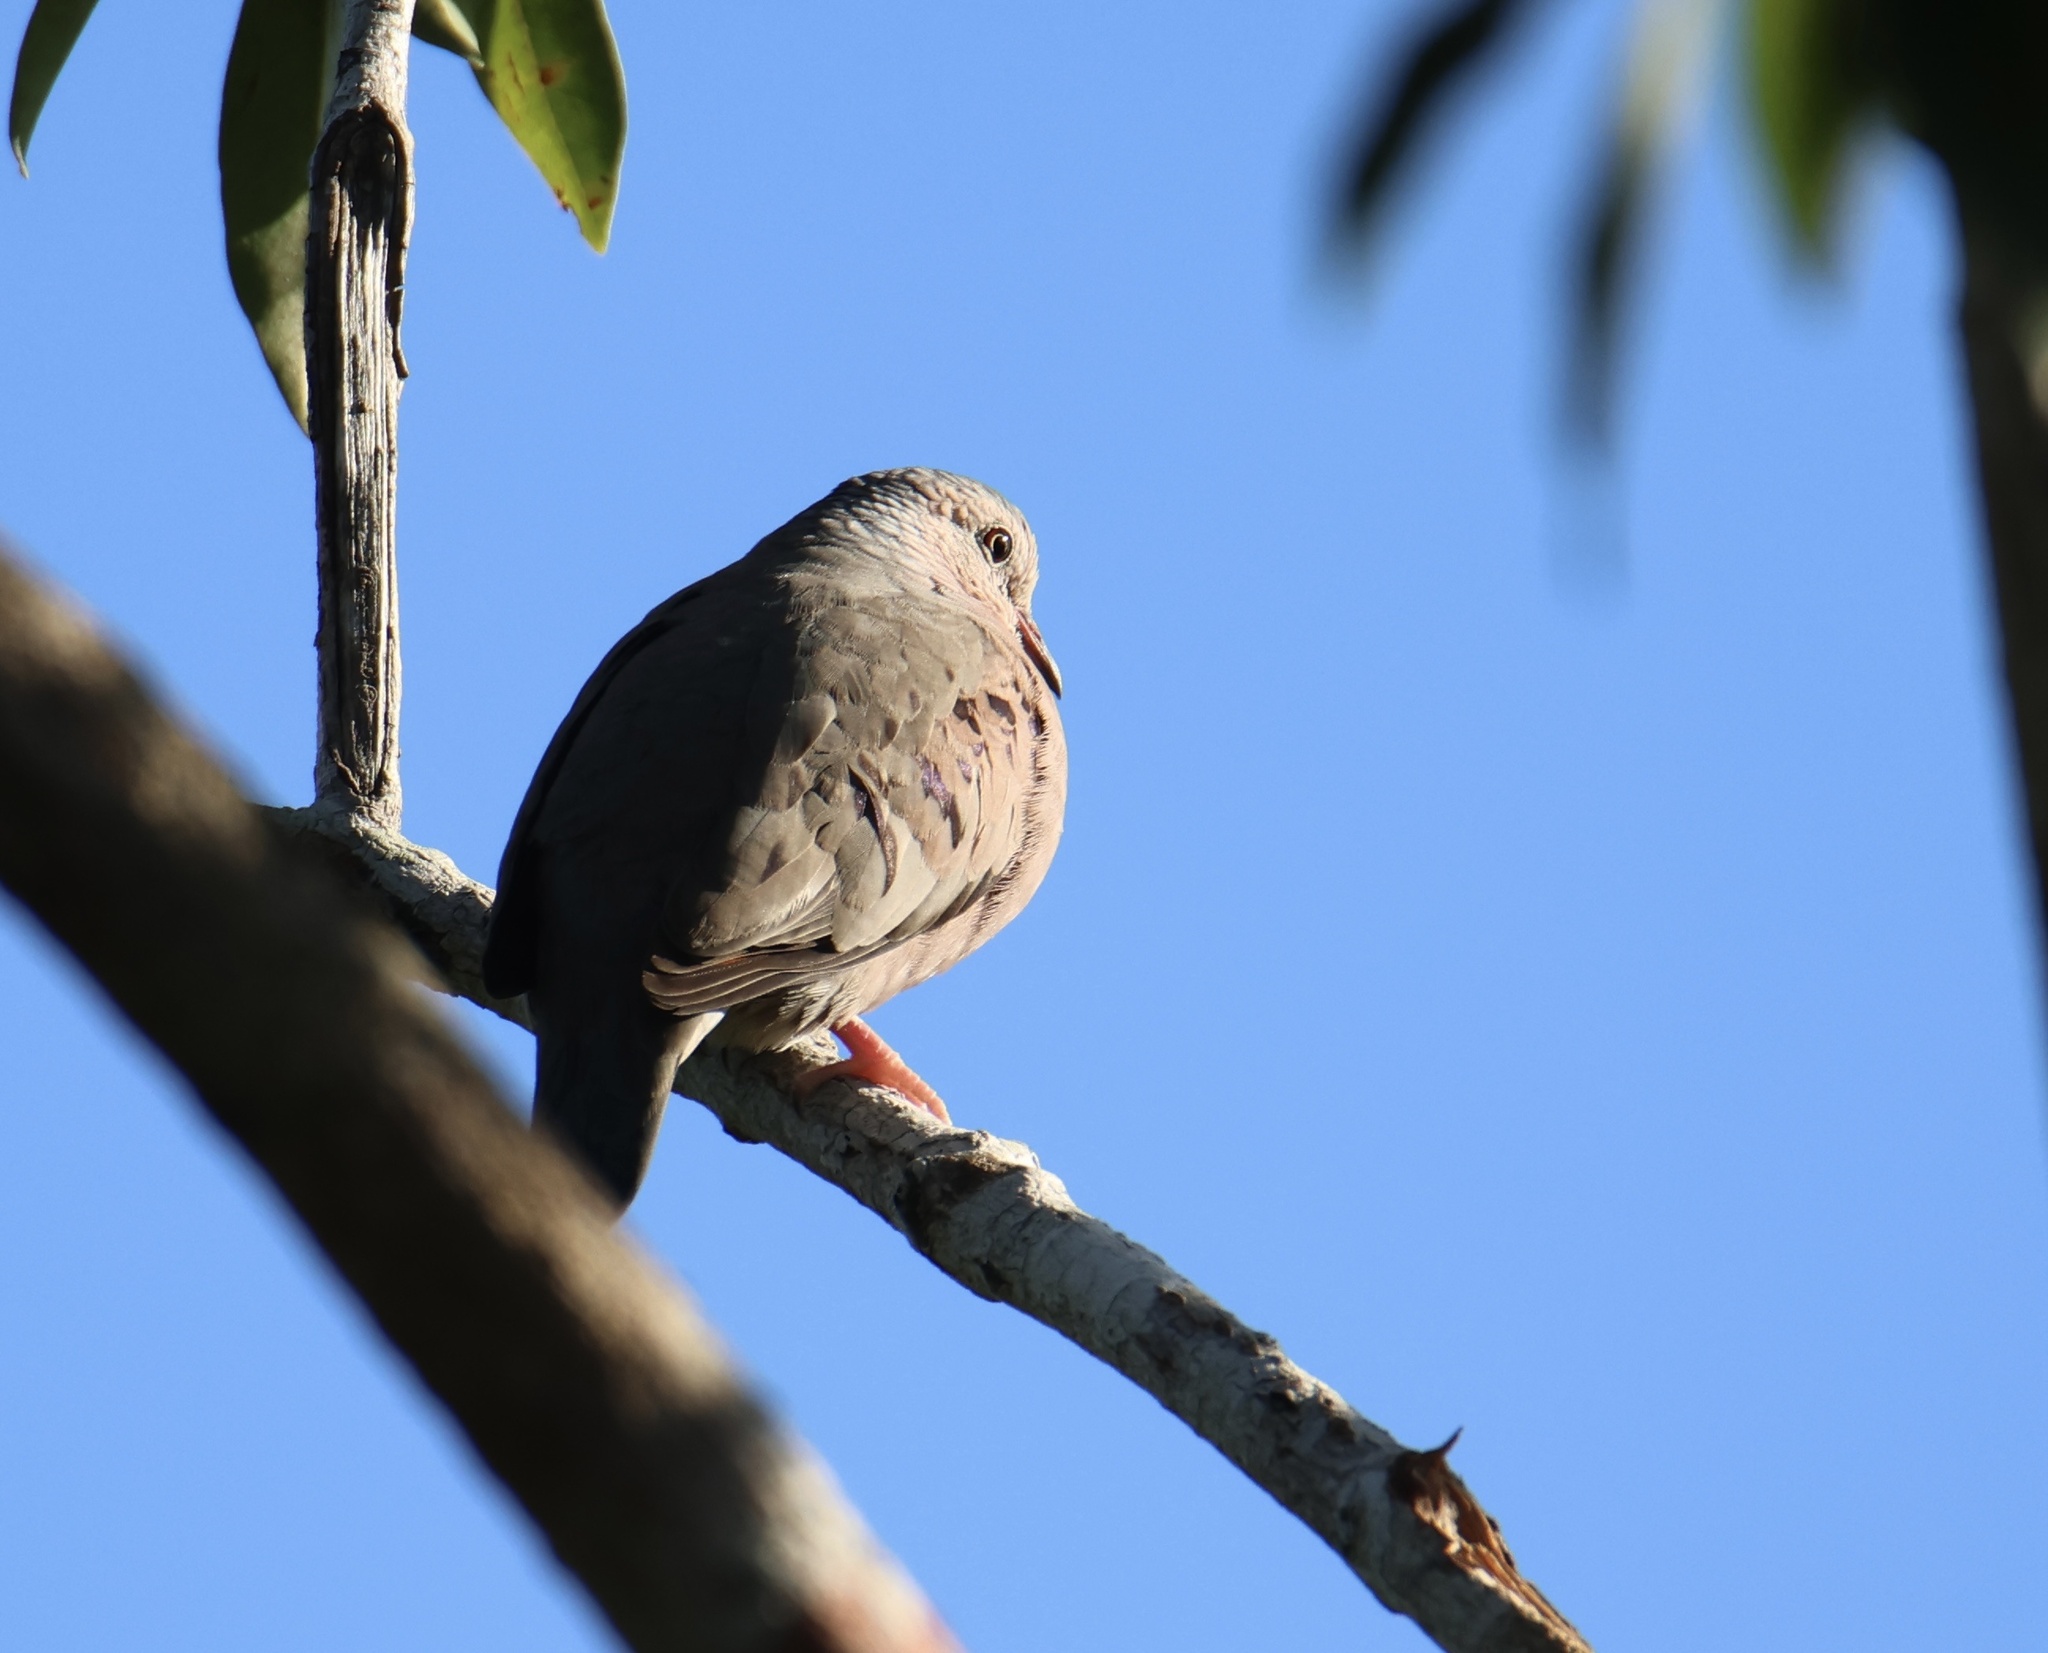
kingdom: Animalia
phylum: Chordata
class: Aves
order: Columbiformes
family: Columbidae
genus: Columbina
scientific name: Columbina passerina
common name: Common ground-dove
